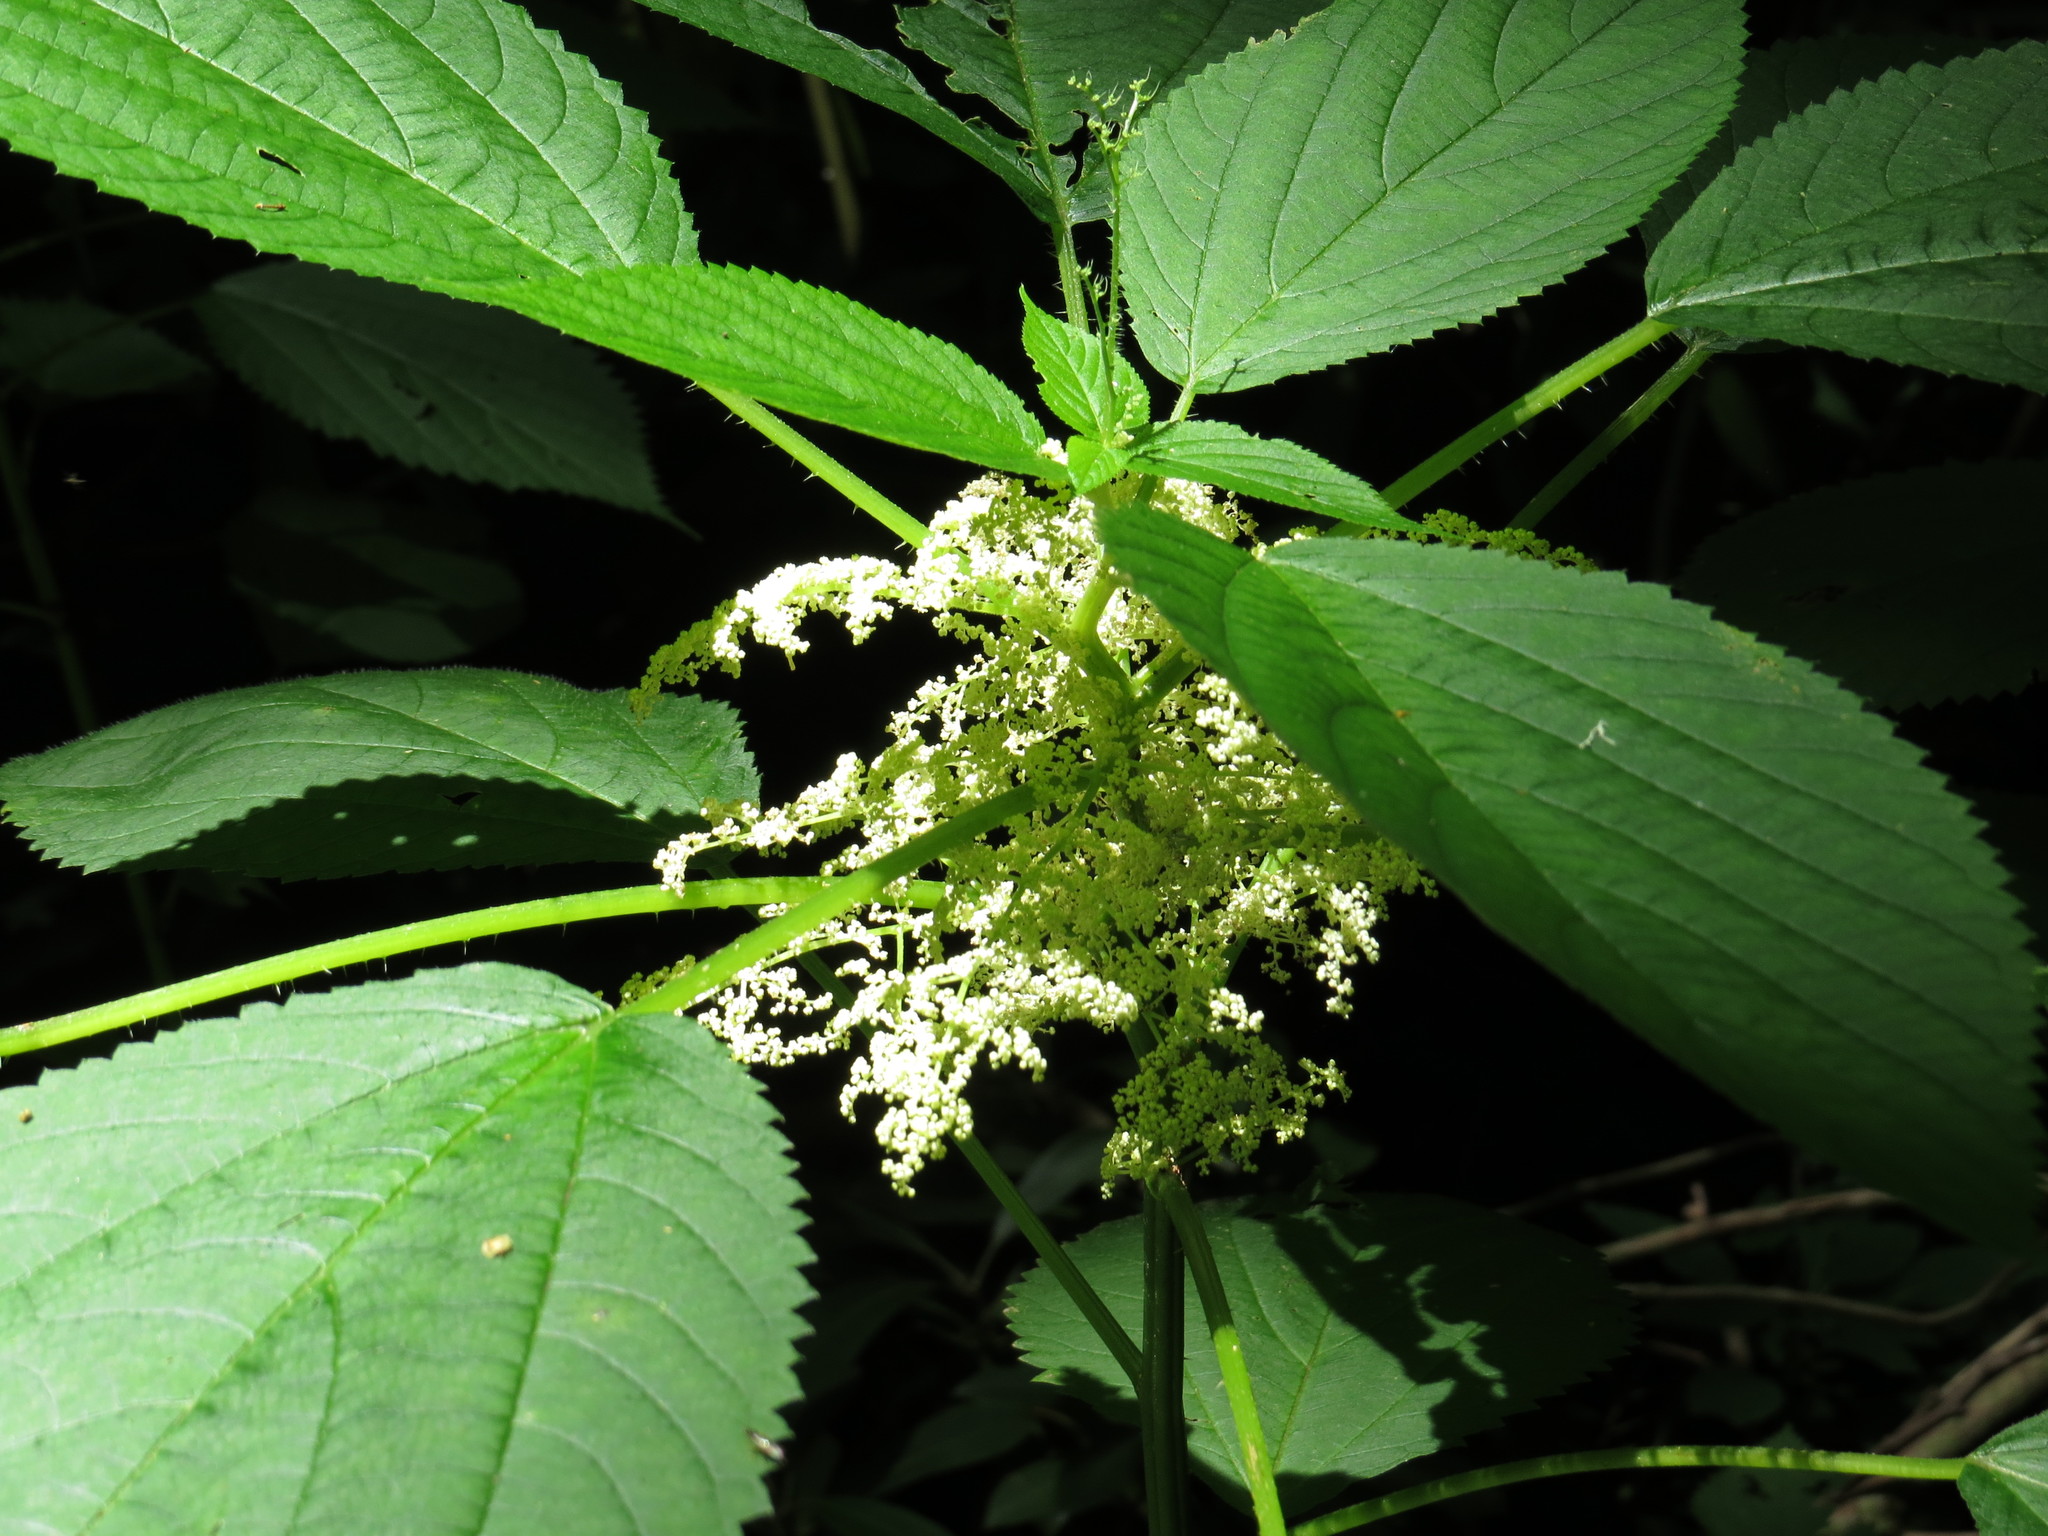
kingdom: Plantae
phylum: Tracheophyta
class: Magnoliopsida
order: Rosales
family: Urticaceae
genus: Laportea
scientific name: Laportea canadensis
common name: Canada nettle
